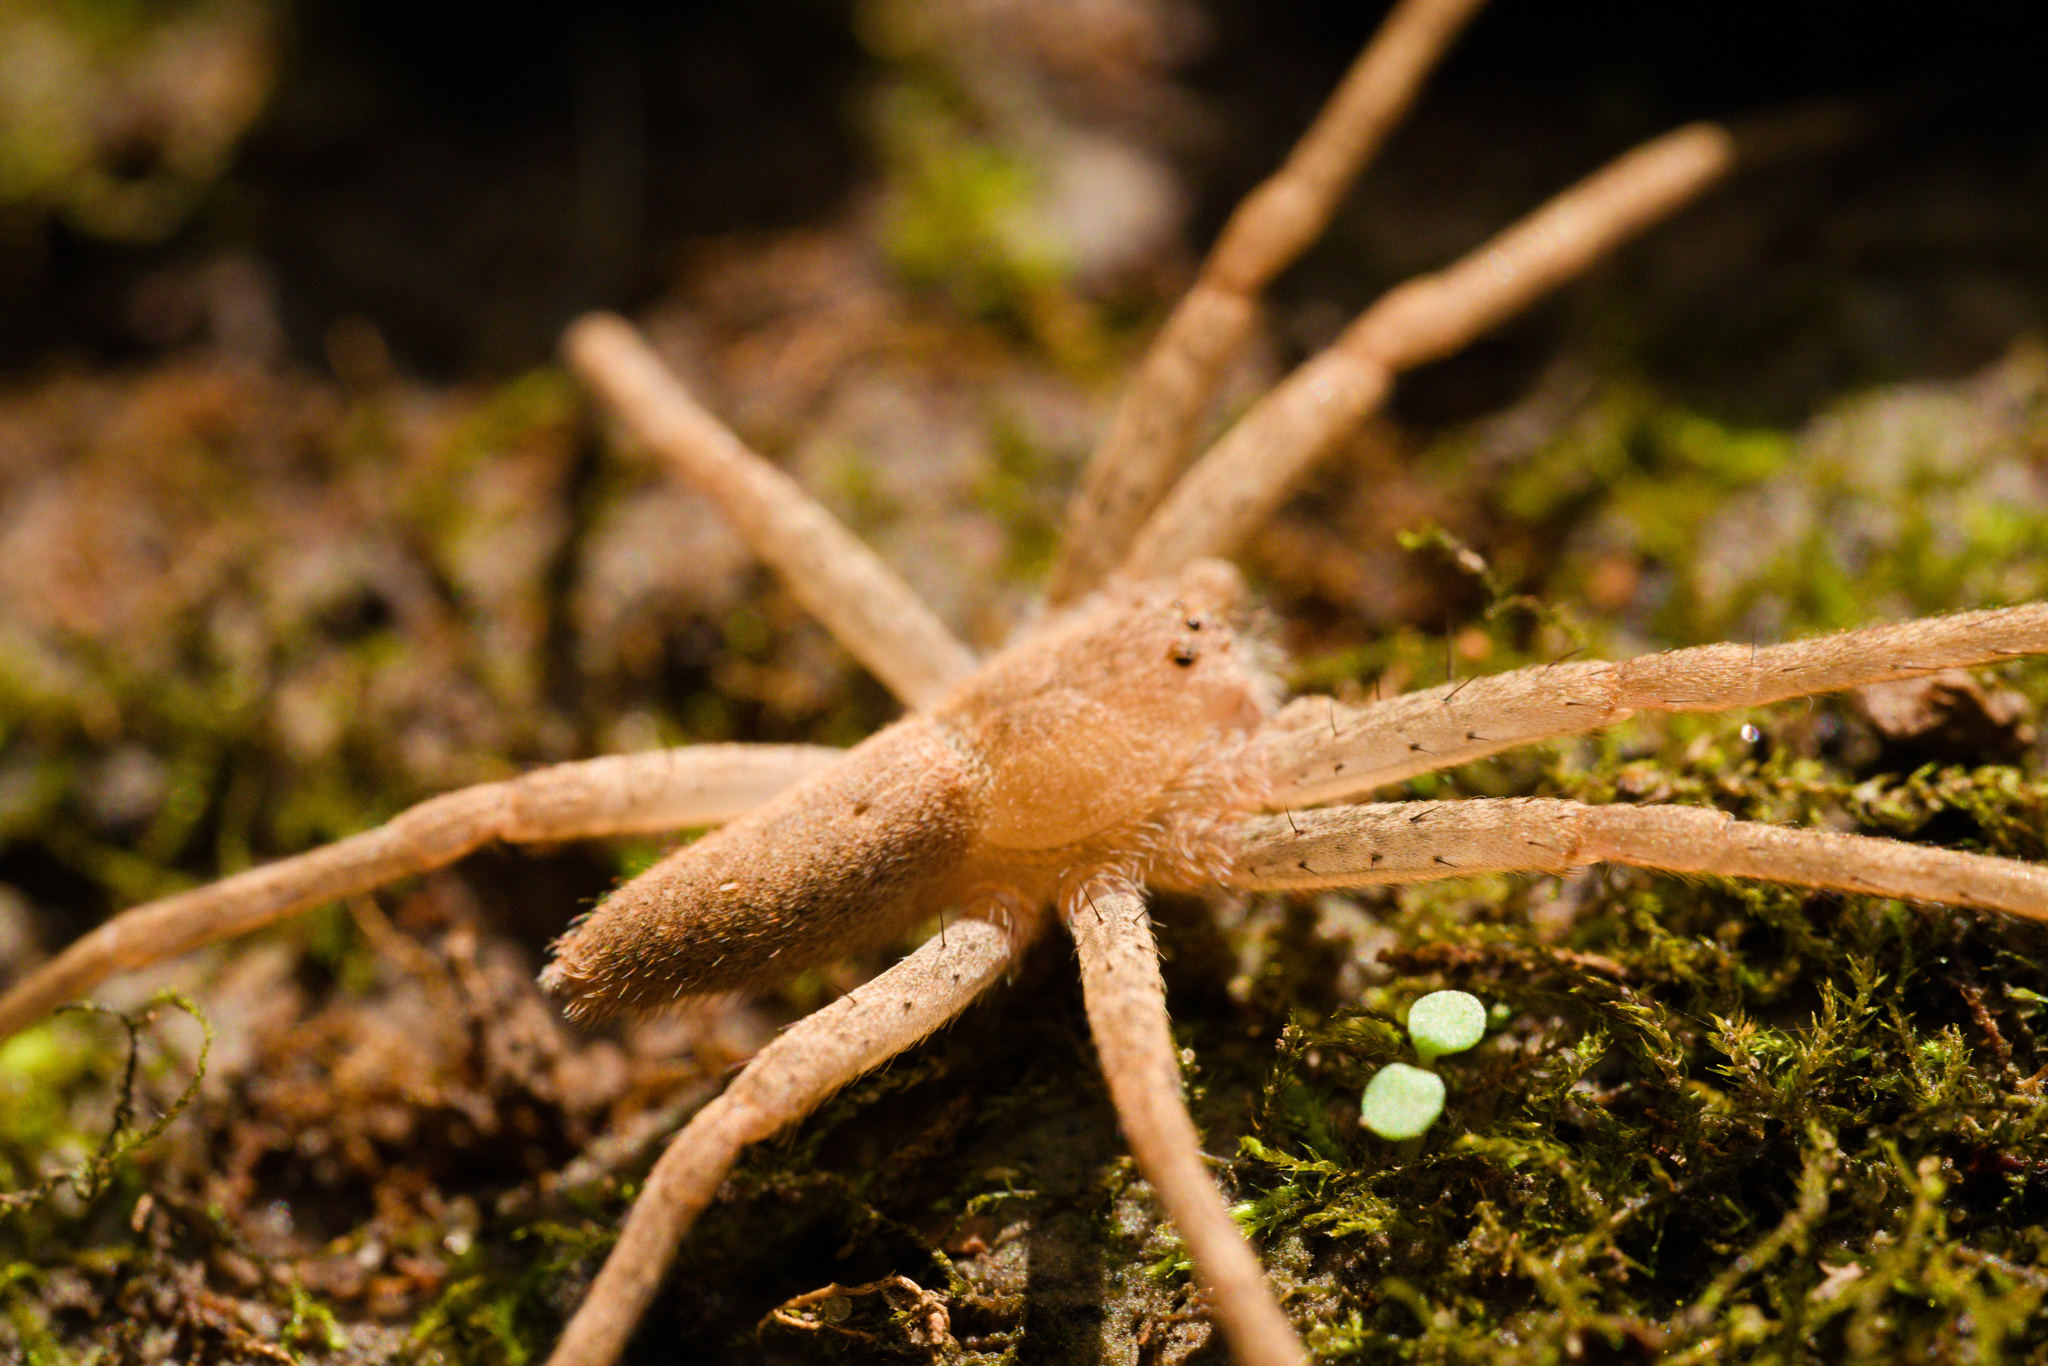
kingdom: Animalia
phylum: Arthropoda
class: Arachnida
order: Araneae
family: Pisauridae
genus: Pisaurina
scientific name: Pisaurina mira
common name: American nursery web spider
